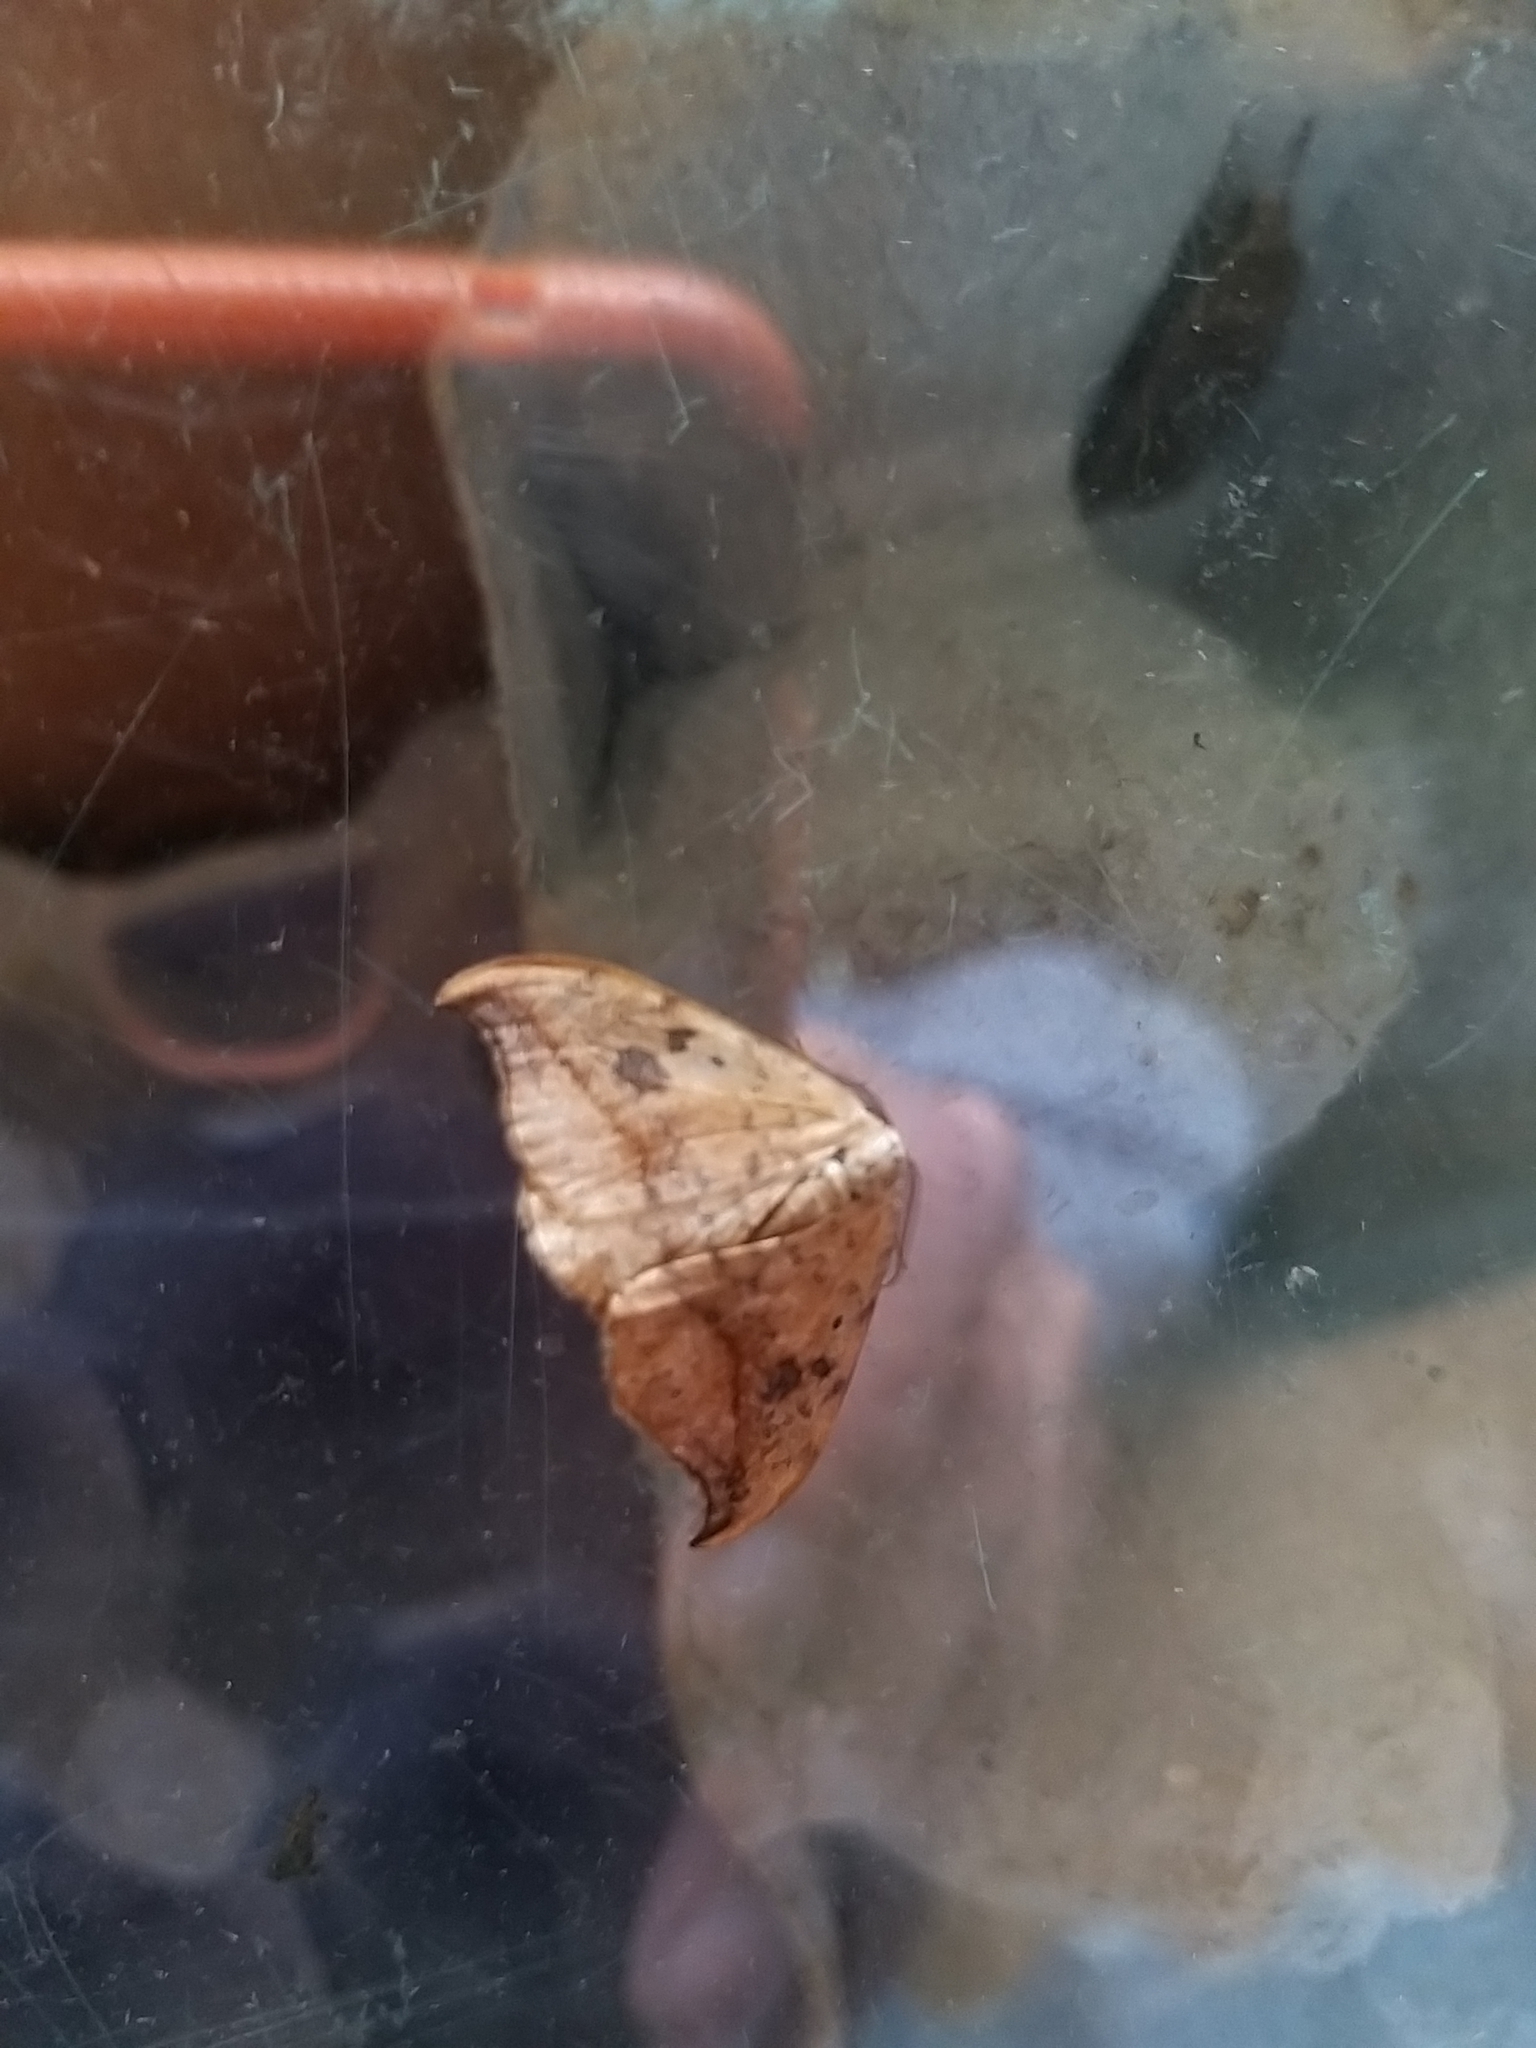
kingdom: Animalia
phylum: Arthropoda
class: Insecta
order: Lepidoptera
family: Drepanidae
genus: Drepana
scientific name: Drepana falcataria
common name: Pebble hook-tip
